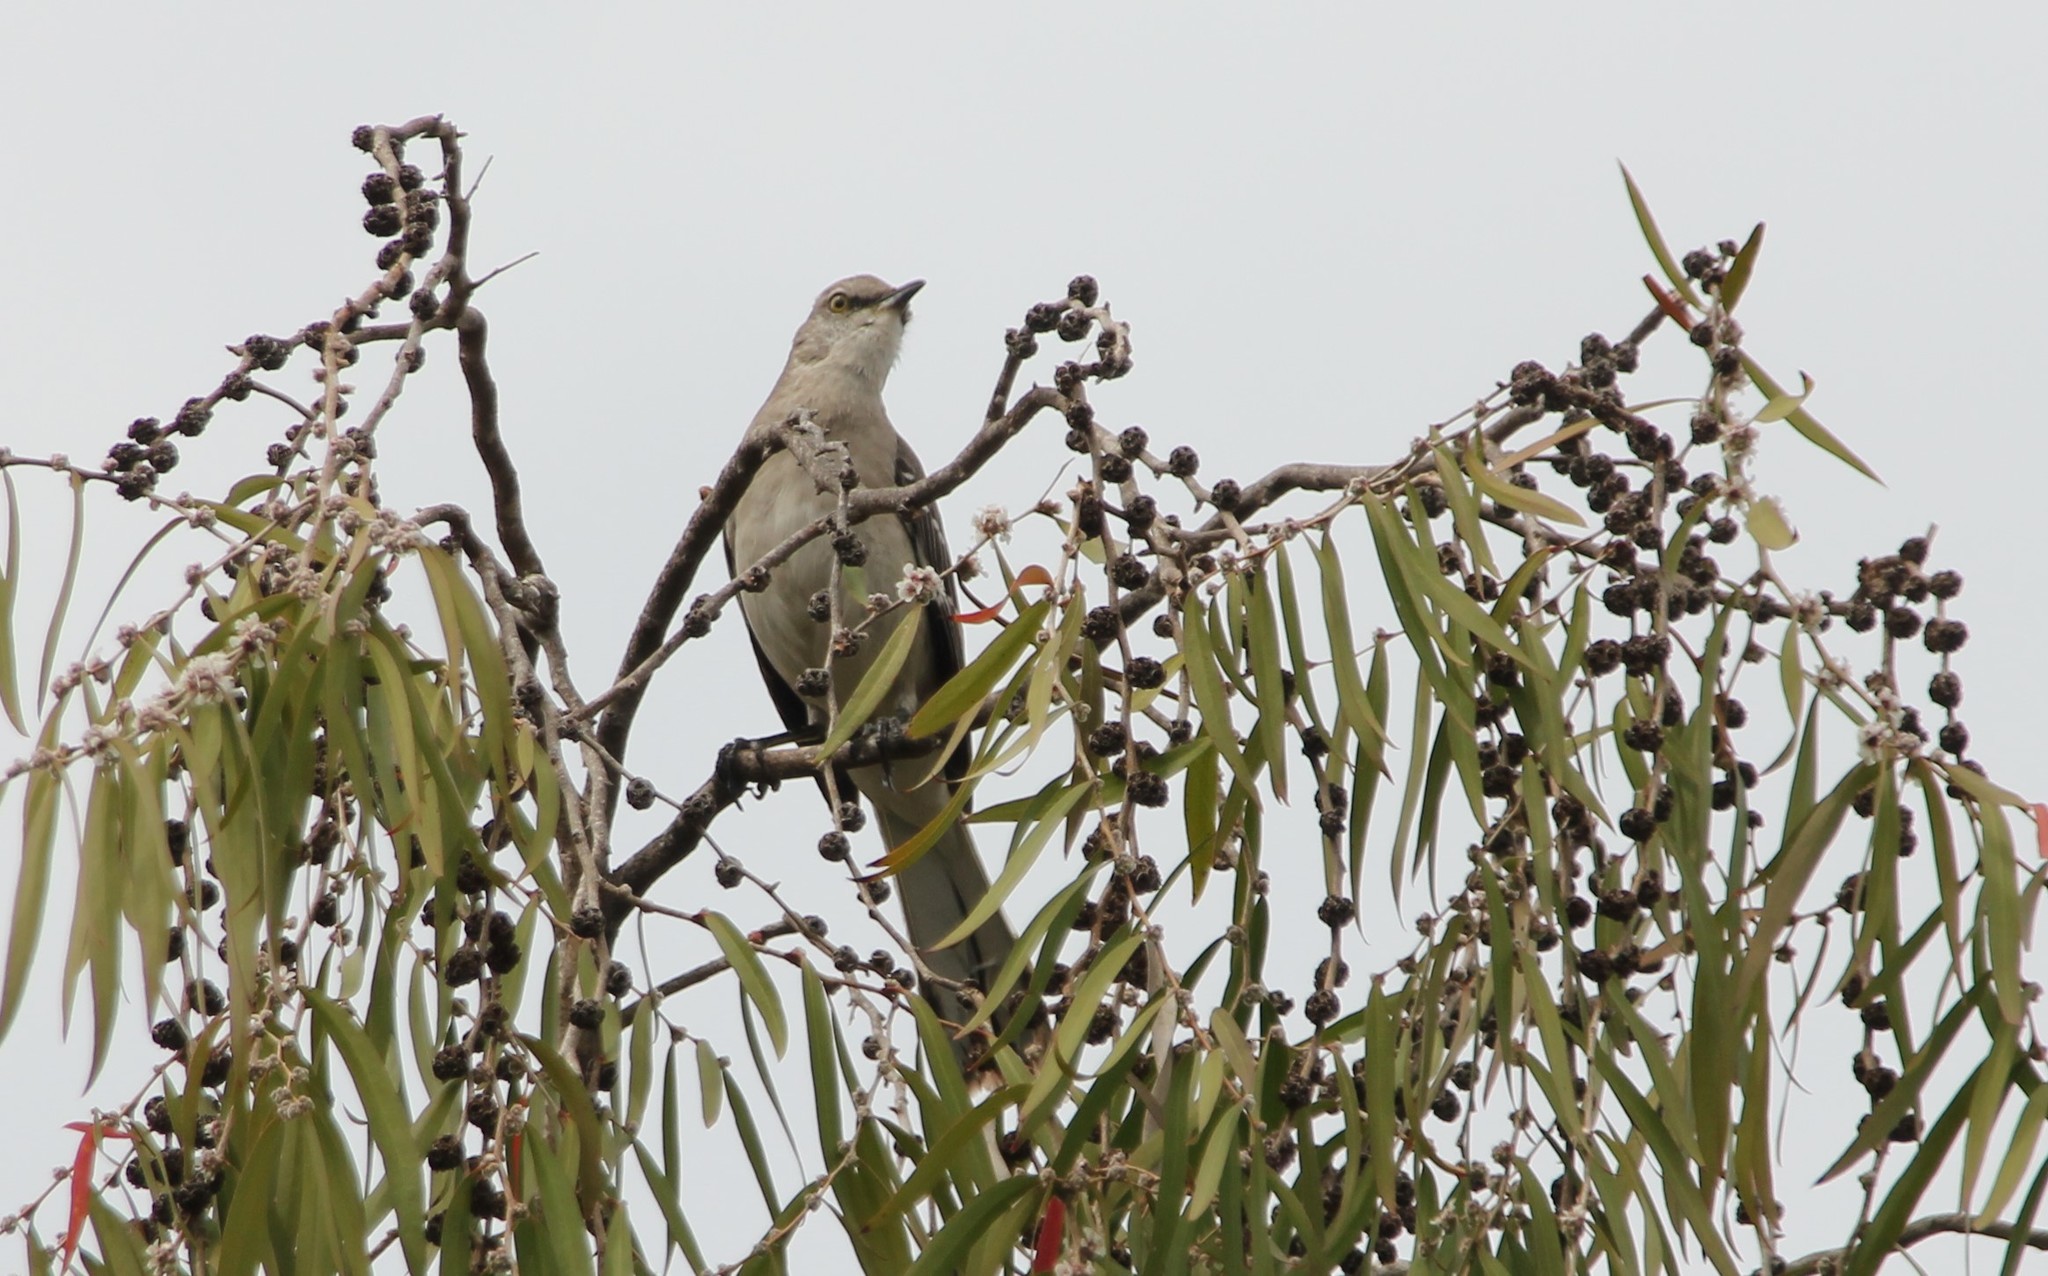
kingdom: Animalia
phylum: Chordata
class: Aves
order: Passeriformes
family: Mimidae
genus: Mimus
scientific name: Mimus polyglottos
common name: Northern mockingbird
